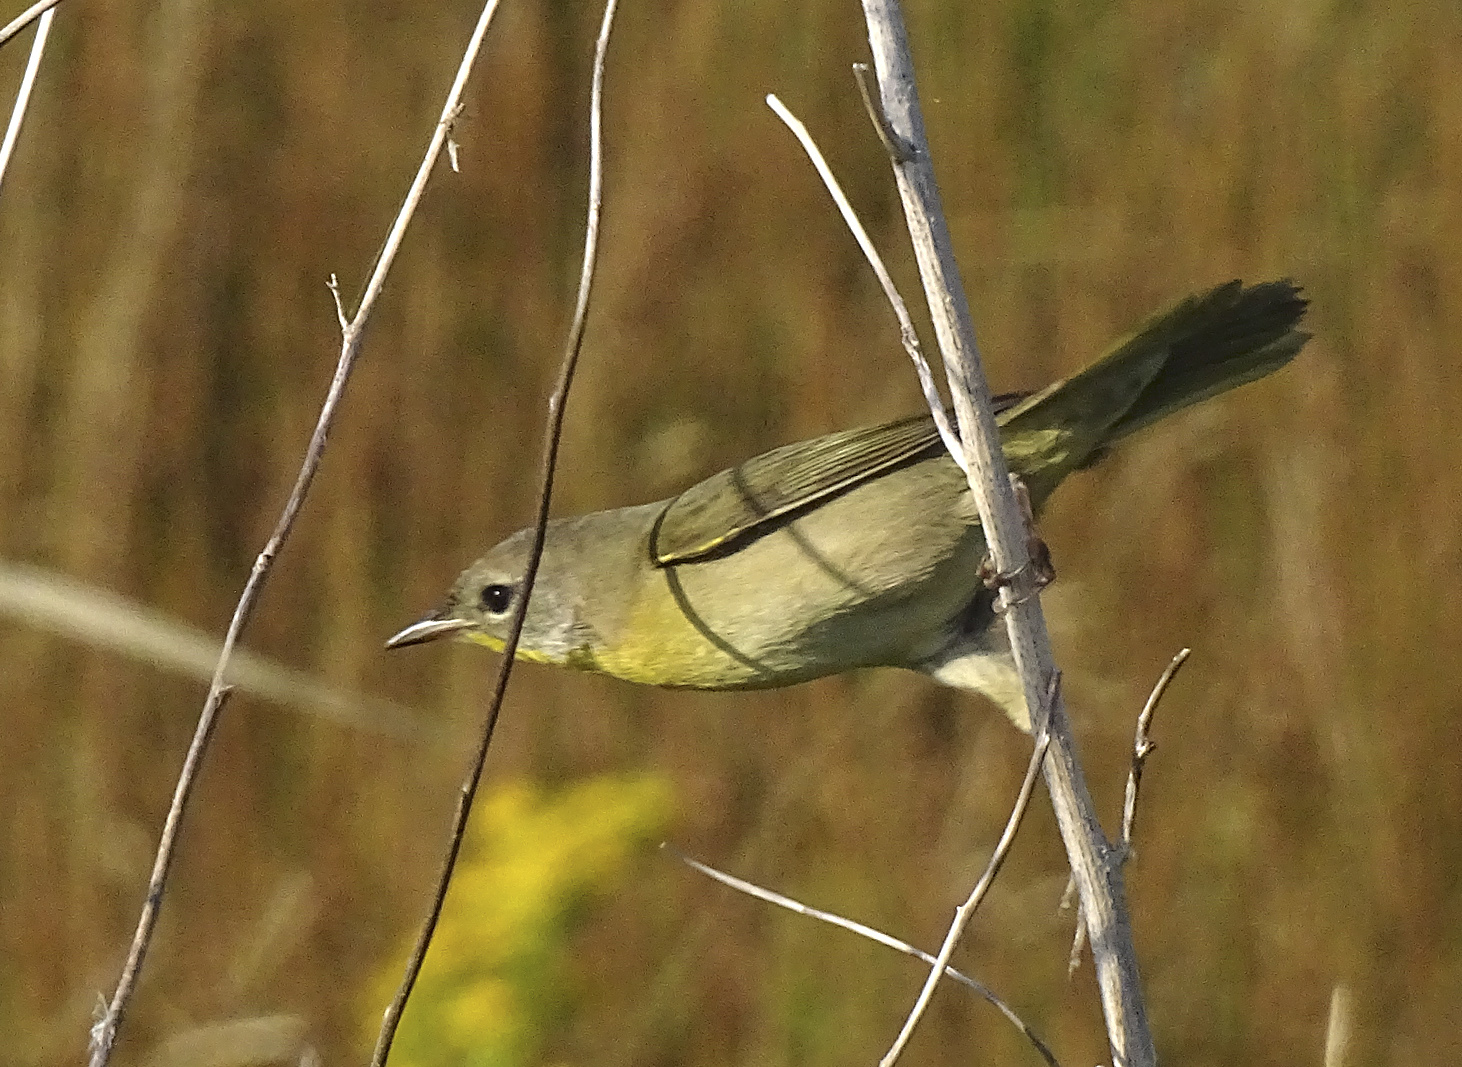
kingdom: Animalia
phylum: Chordata
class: Aves
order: Passeriformes
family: Parulidae
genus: Geothlypis
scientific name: Geothlypis trichas
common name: Common yellowthroat
